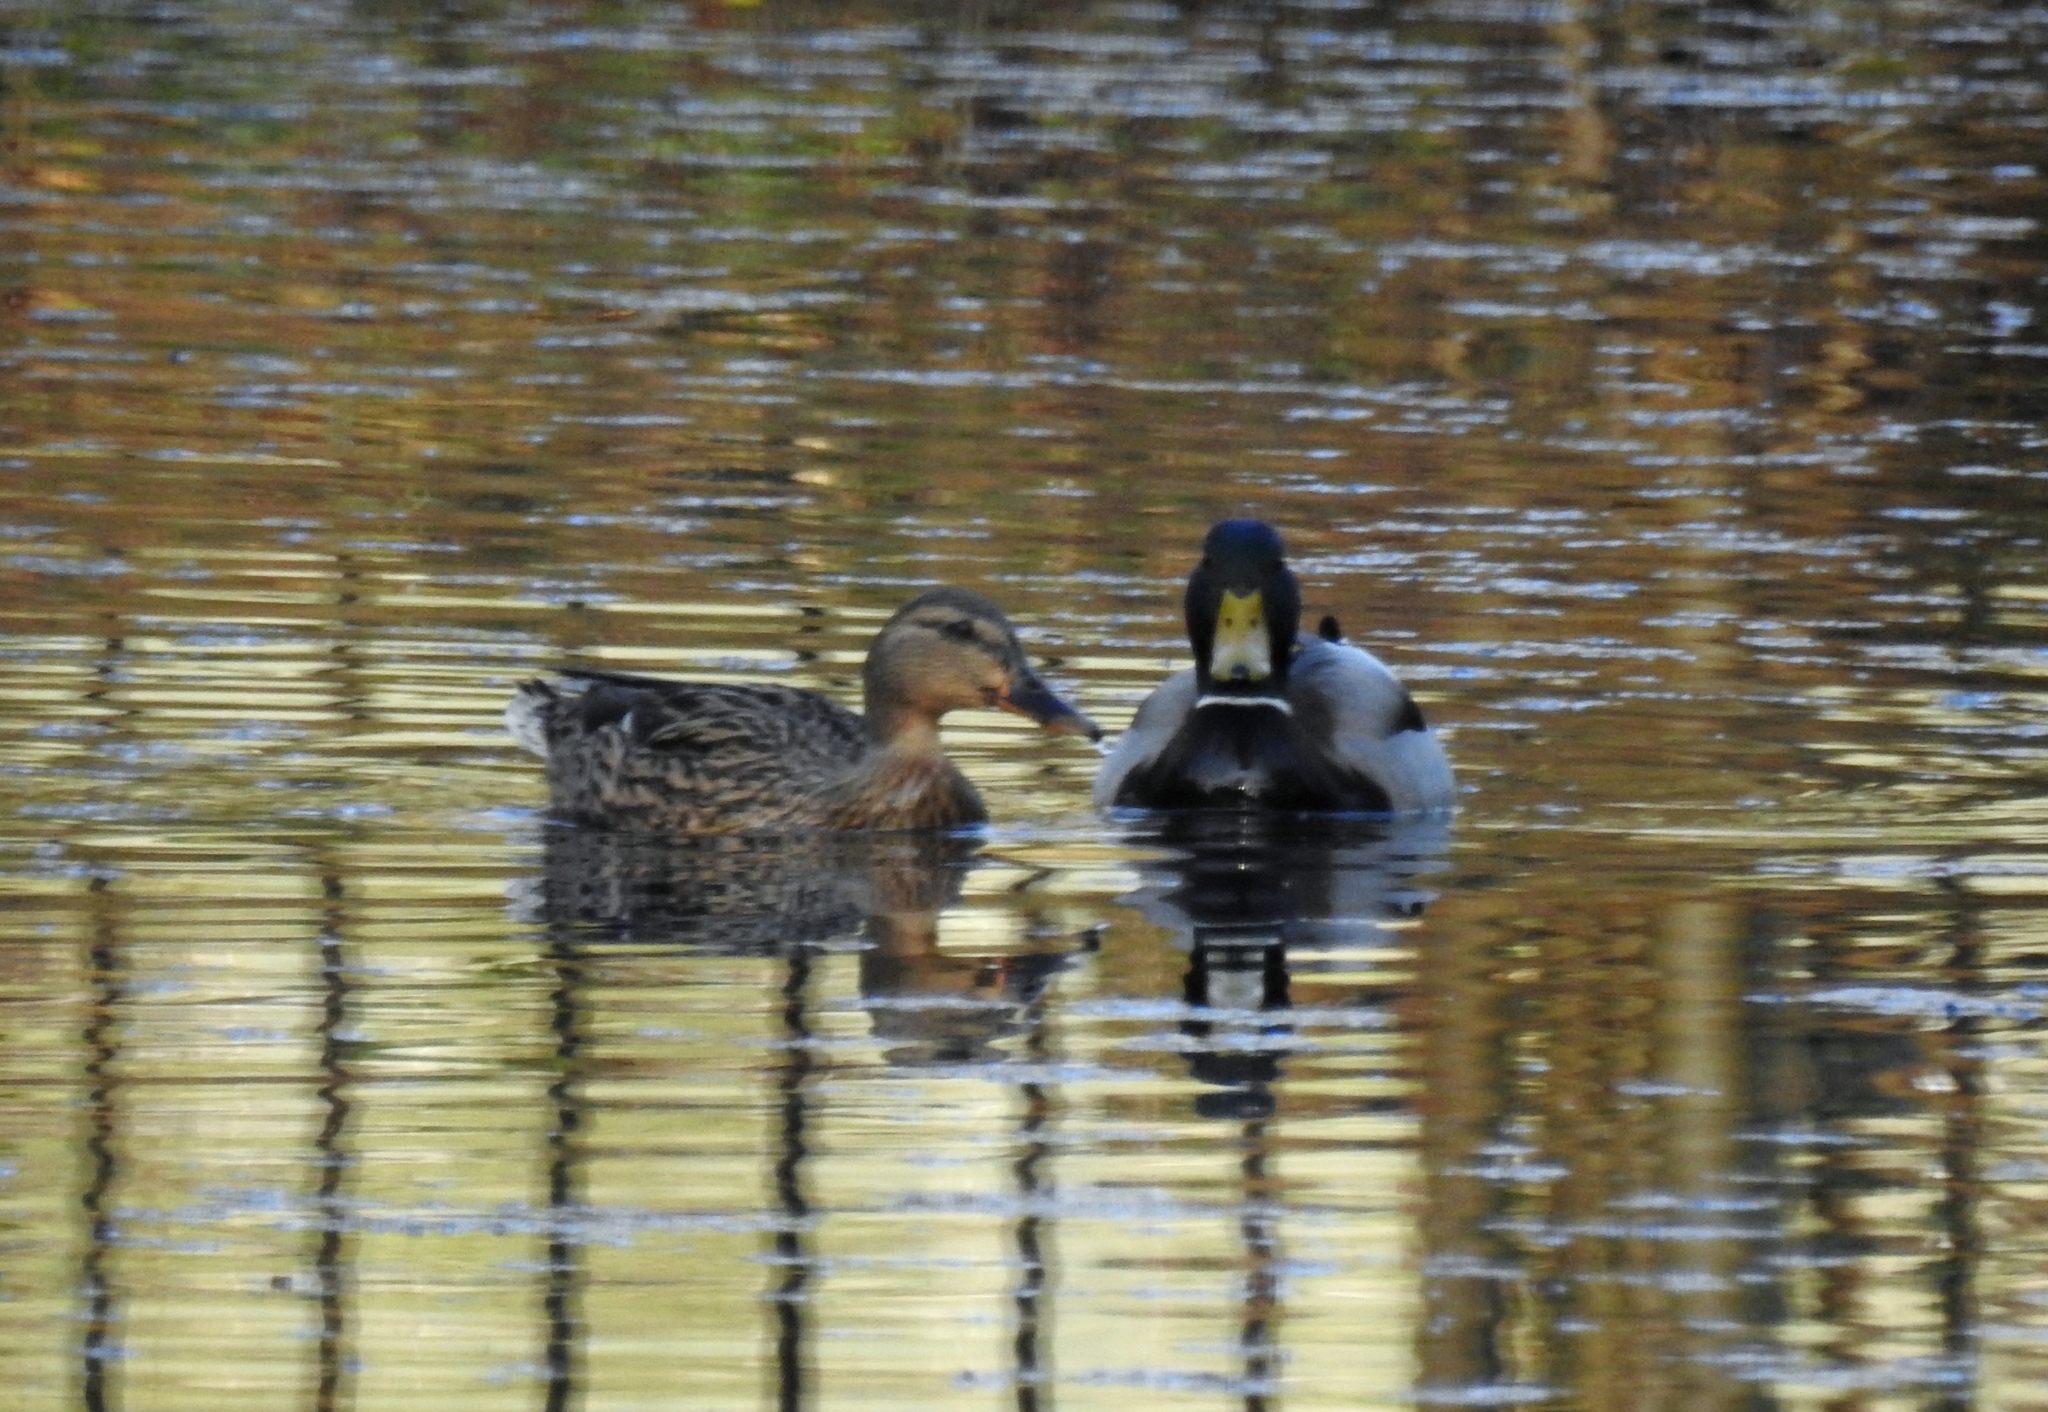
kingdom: Animalia
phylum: Chordata
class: Aves
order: Anseriformes
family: Anatidae
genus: Anas
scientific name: Anas platyrhynchos
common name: Mallard
